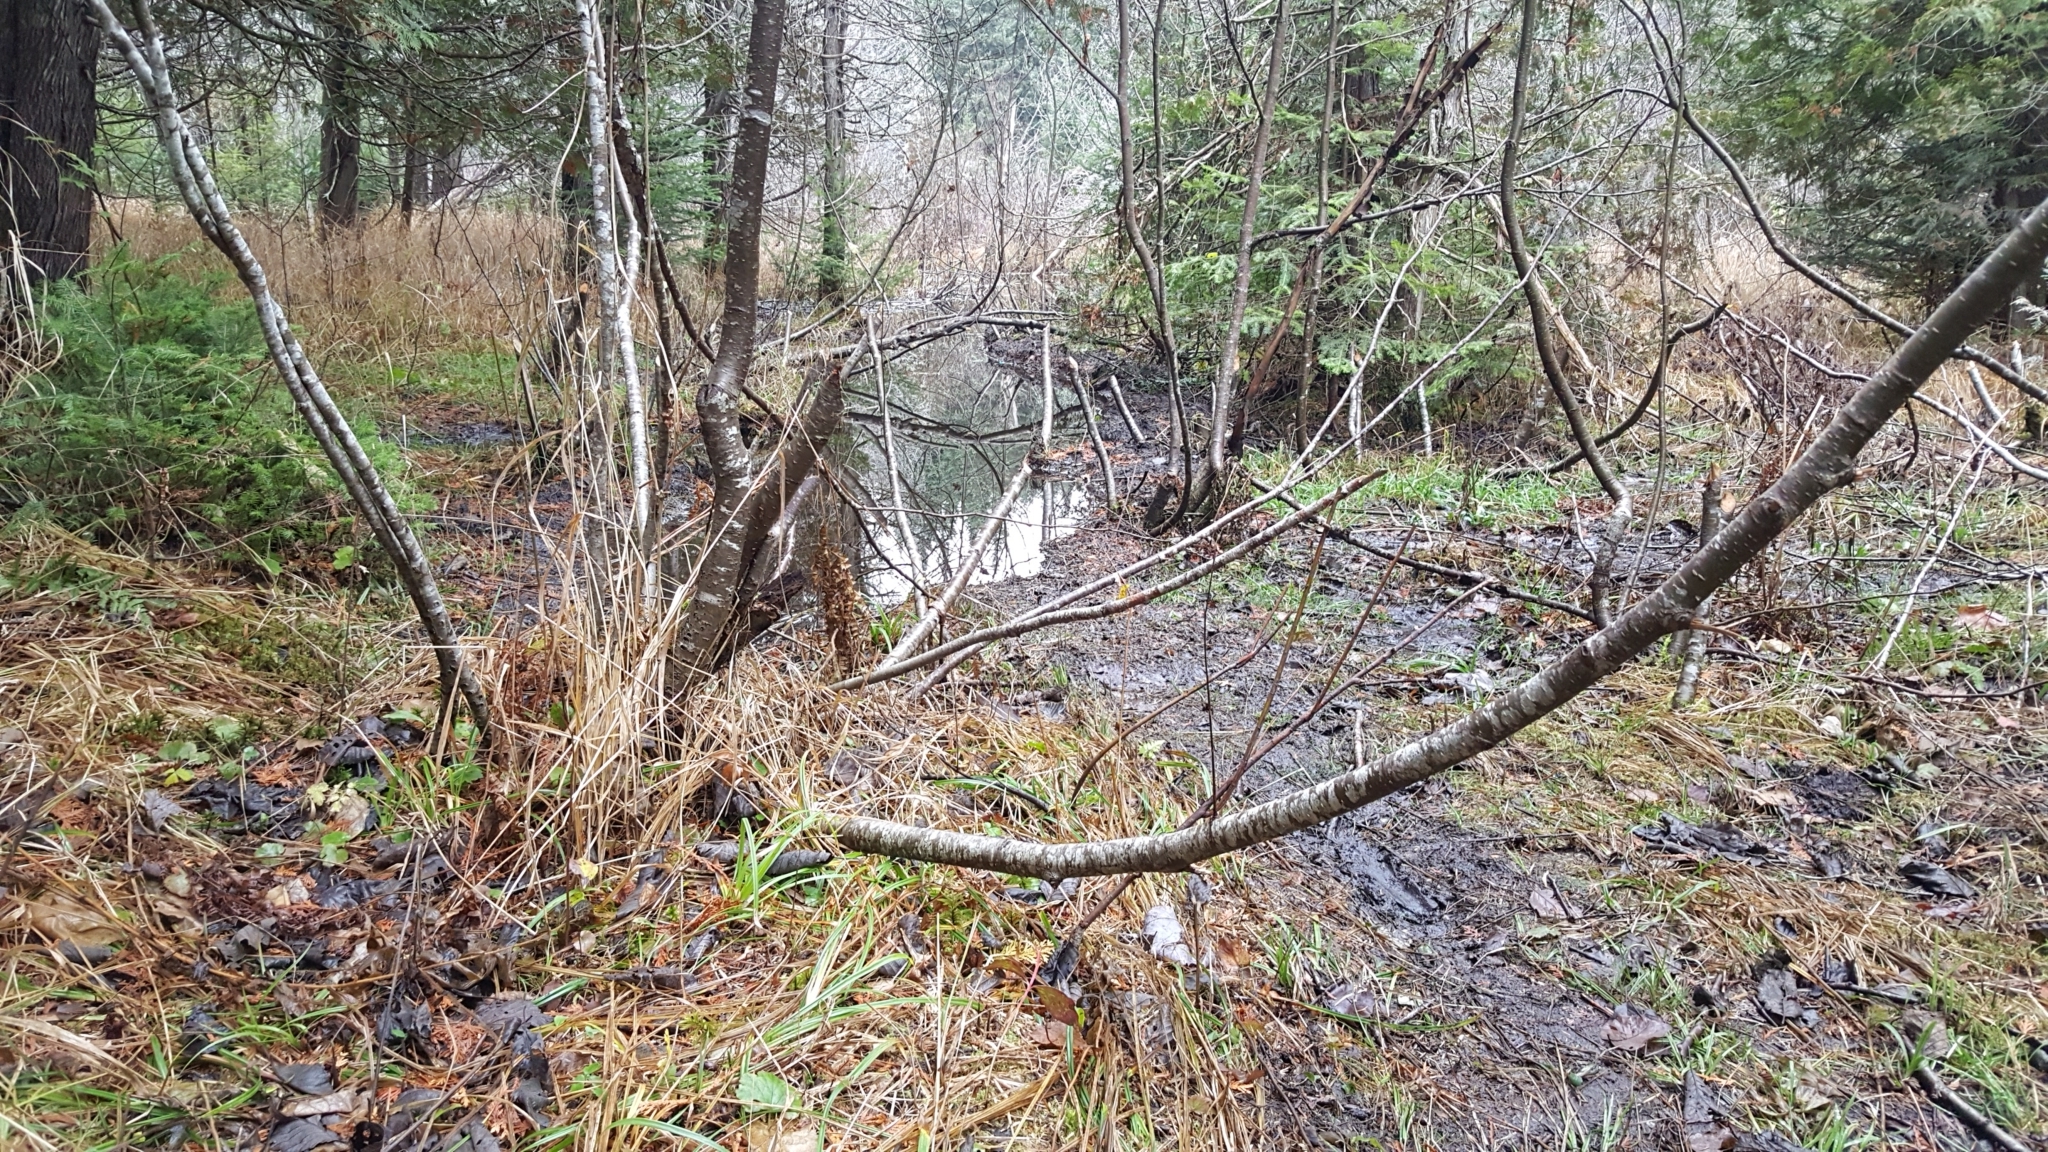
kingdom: Animalia
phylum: Chordata
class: Mammalia
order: Rodentia
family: Castoridae
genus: Castor
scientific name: Castor canadensis
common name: American beaver
